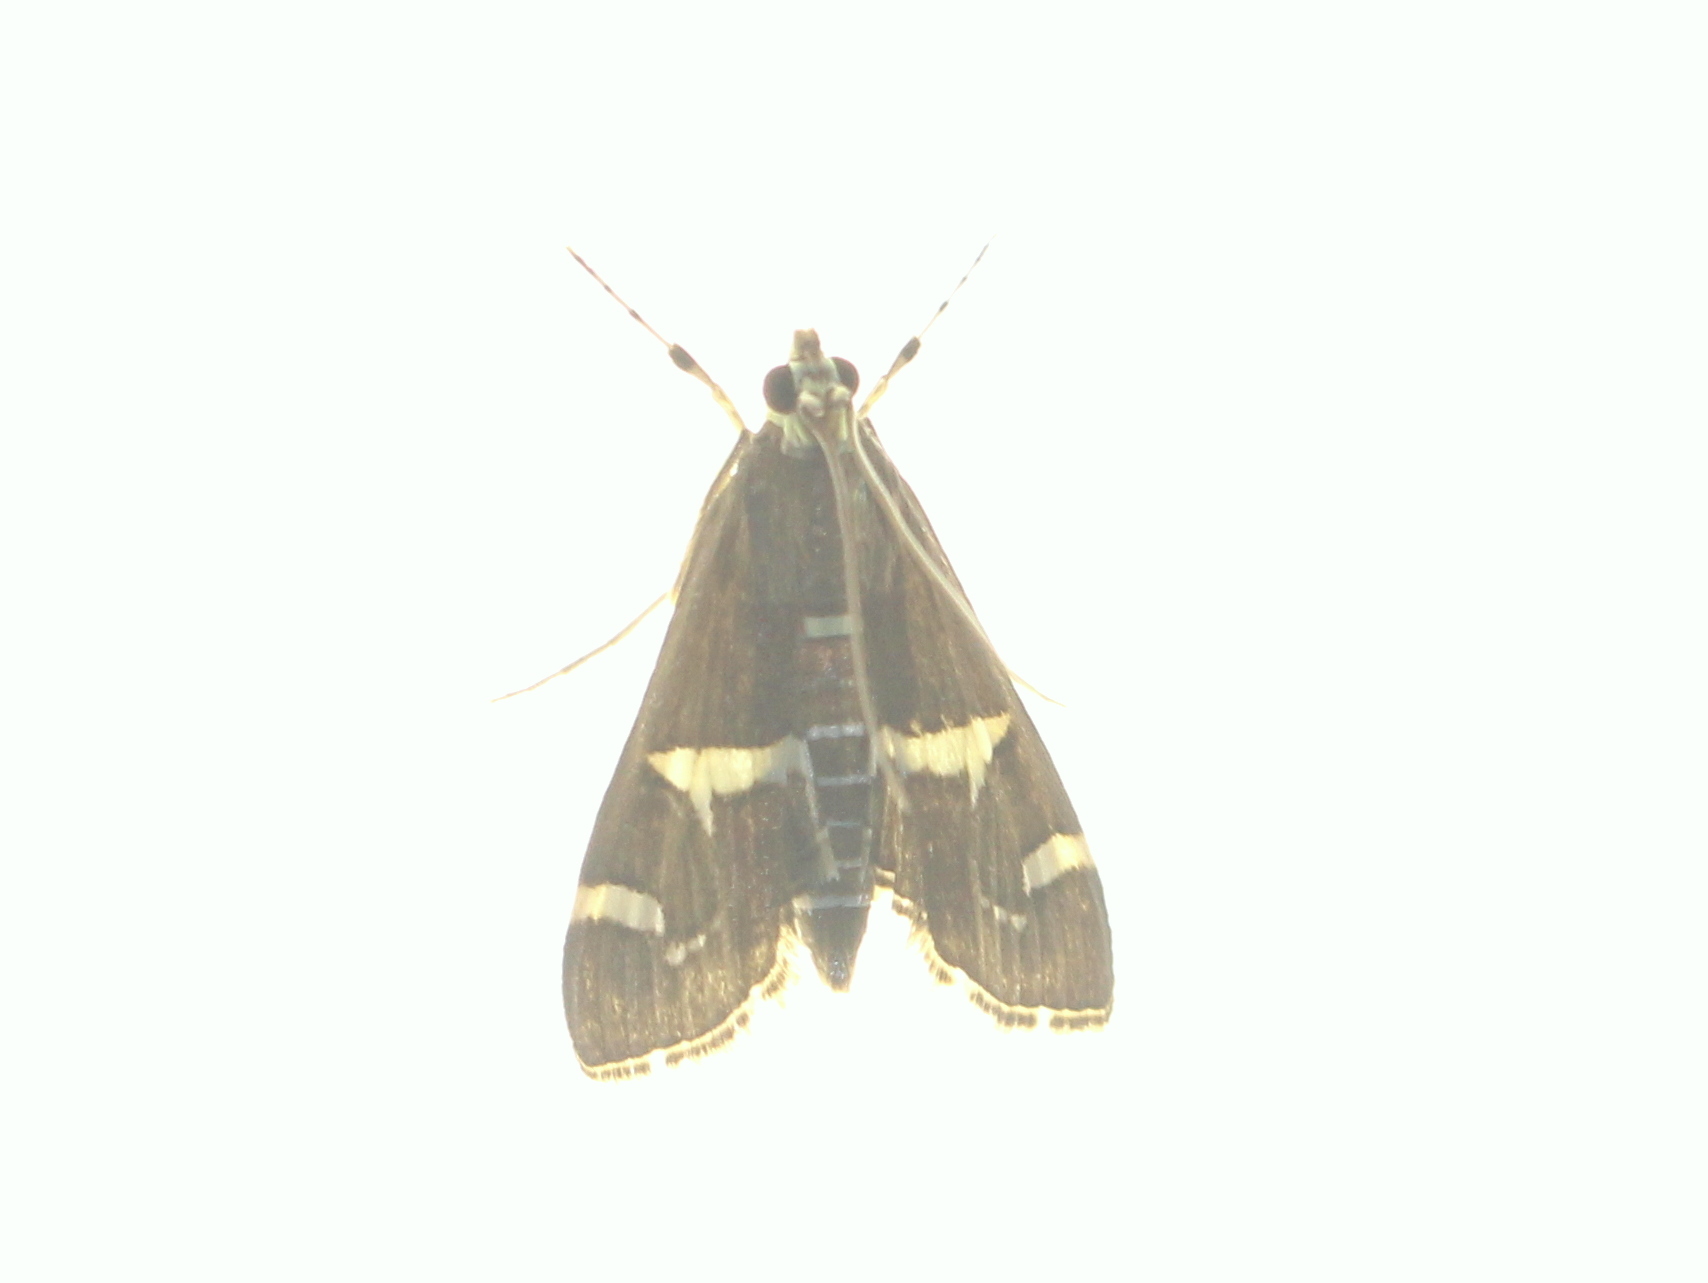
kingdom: Animalia
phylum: Arthropoda
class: Insecta
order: Lepidoptera
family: Crambidae
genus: Spoladea
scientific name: Spoladea recurvalis
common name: Beet webworm moth
